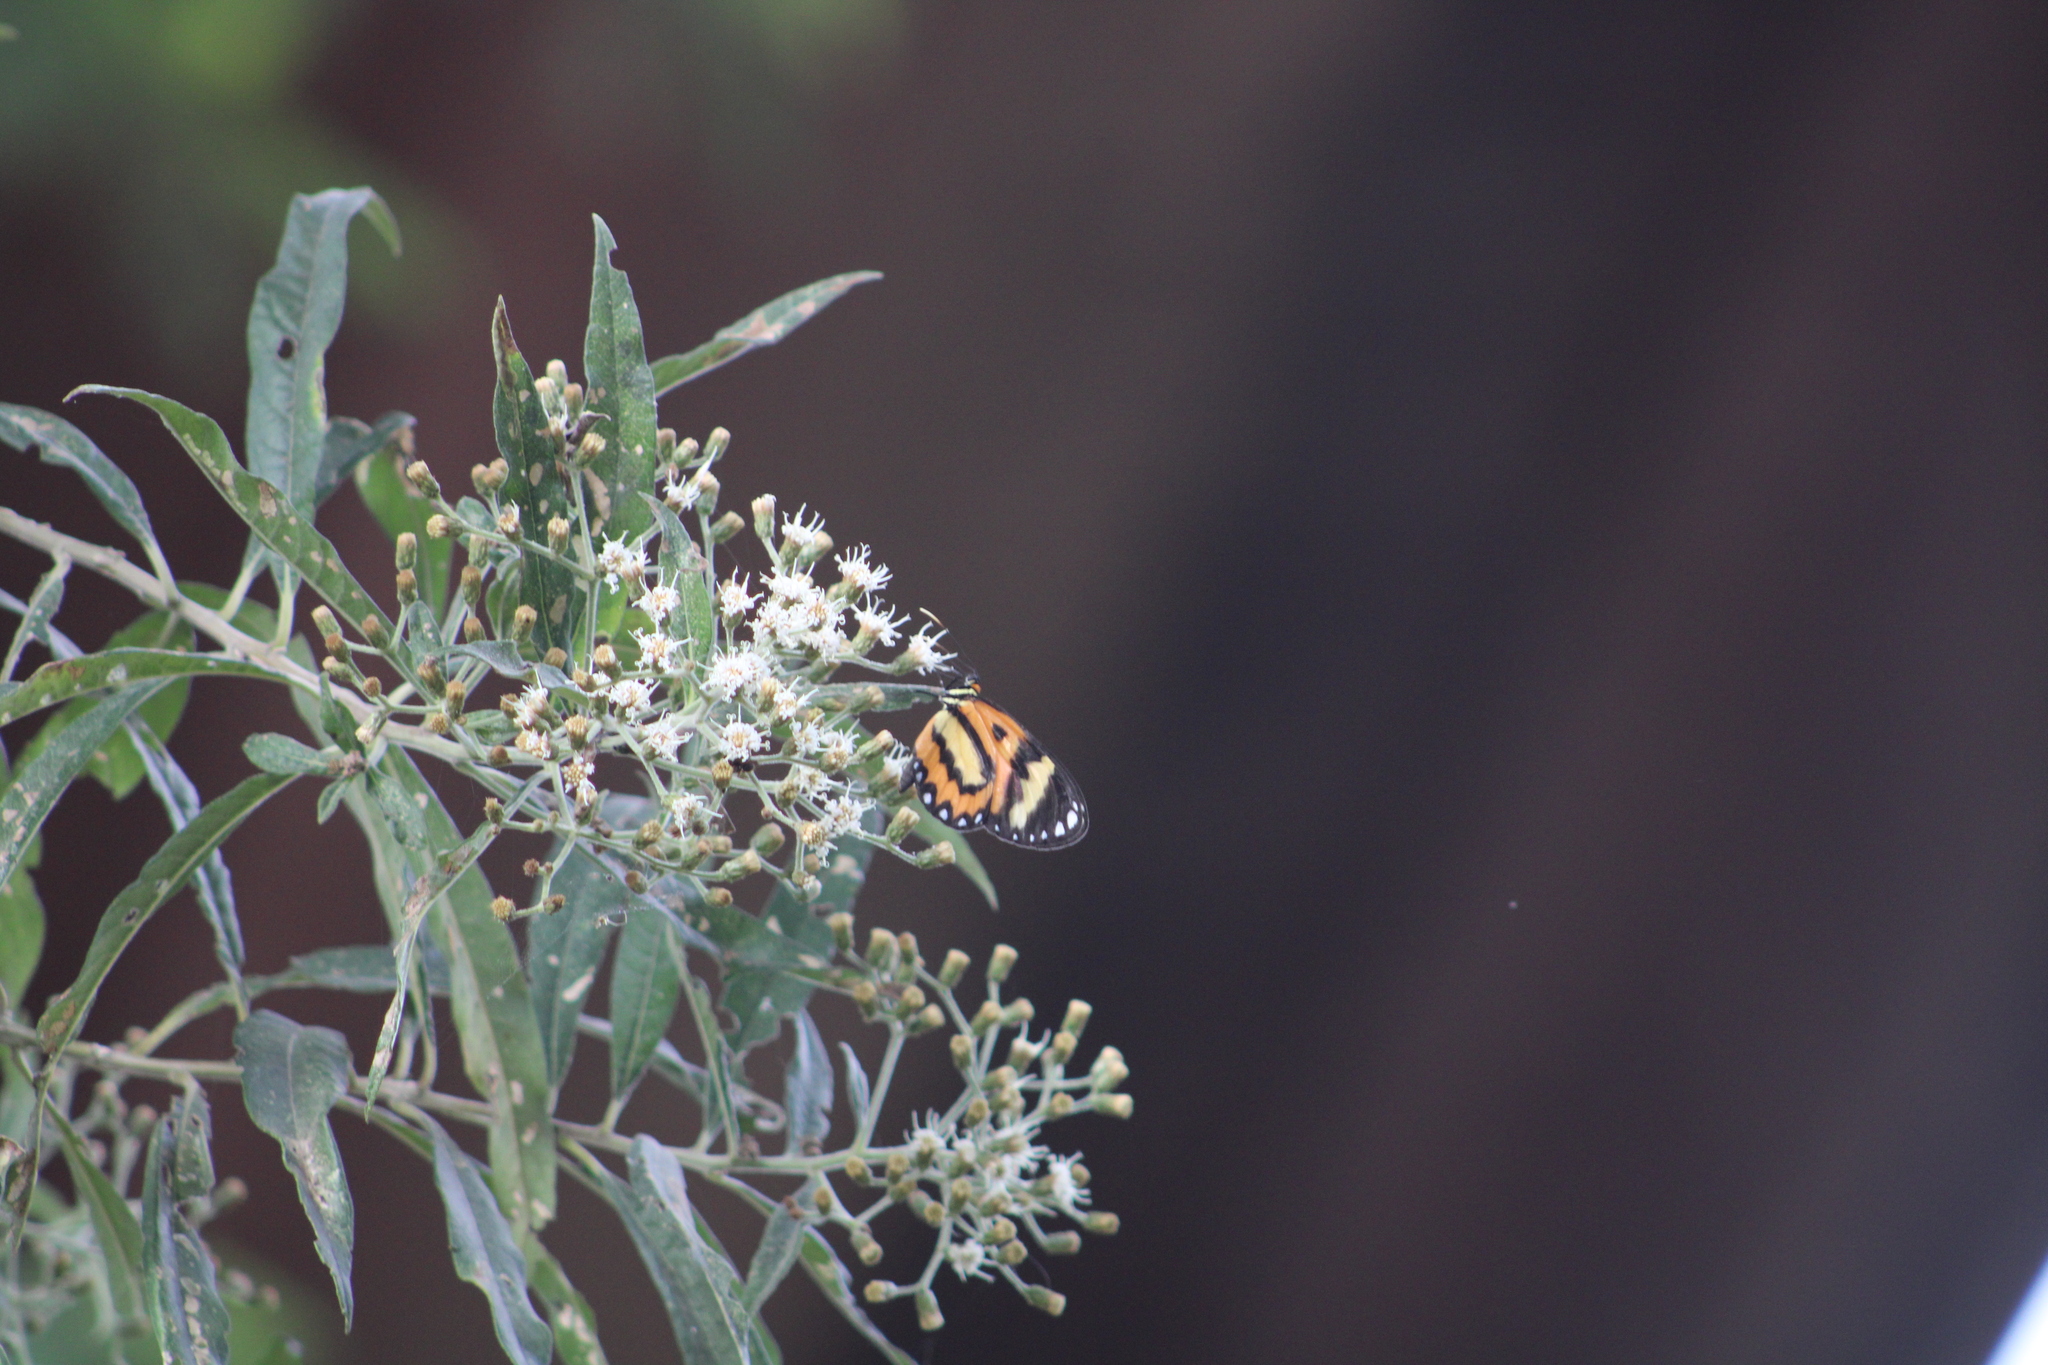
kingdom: Animalia
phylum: Arthropoda
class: Insecta
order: Lepidoptera
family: Nymphalidae
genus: Placidina
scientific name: Placidina euryanassa
